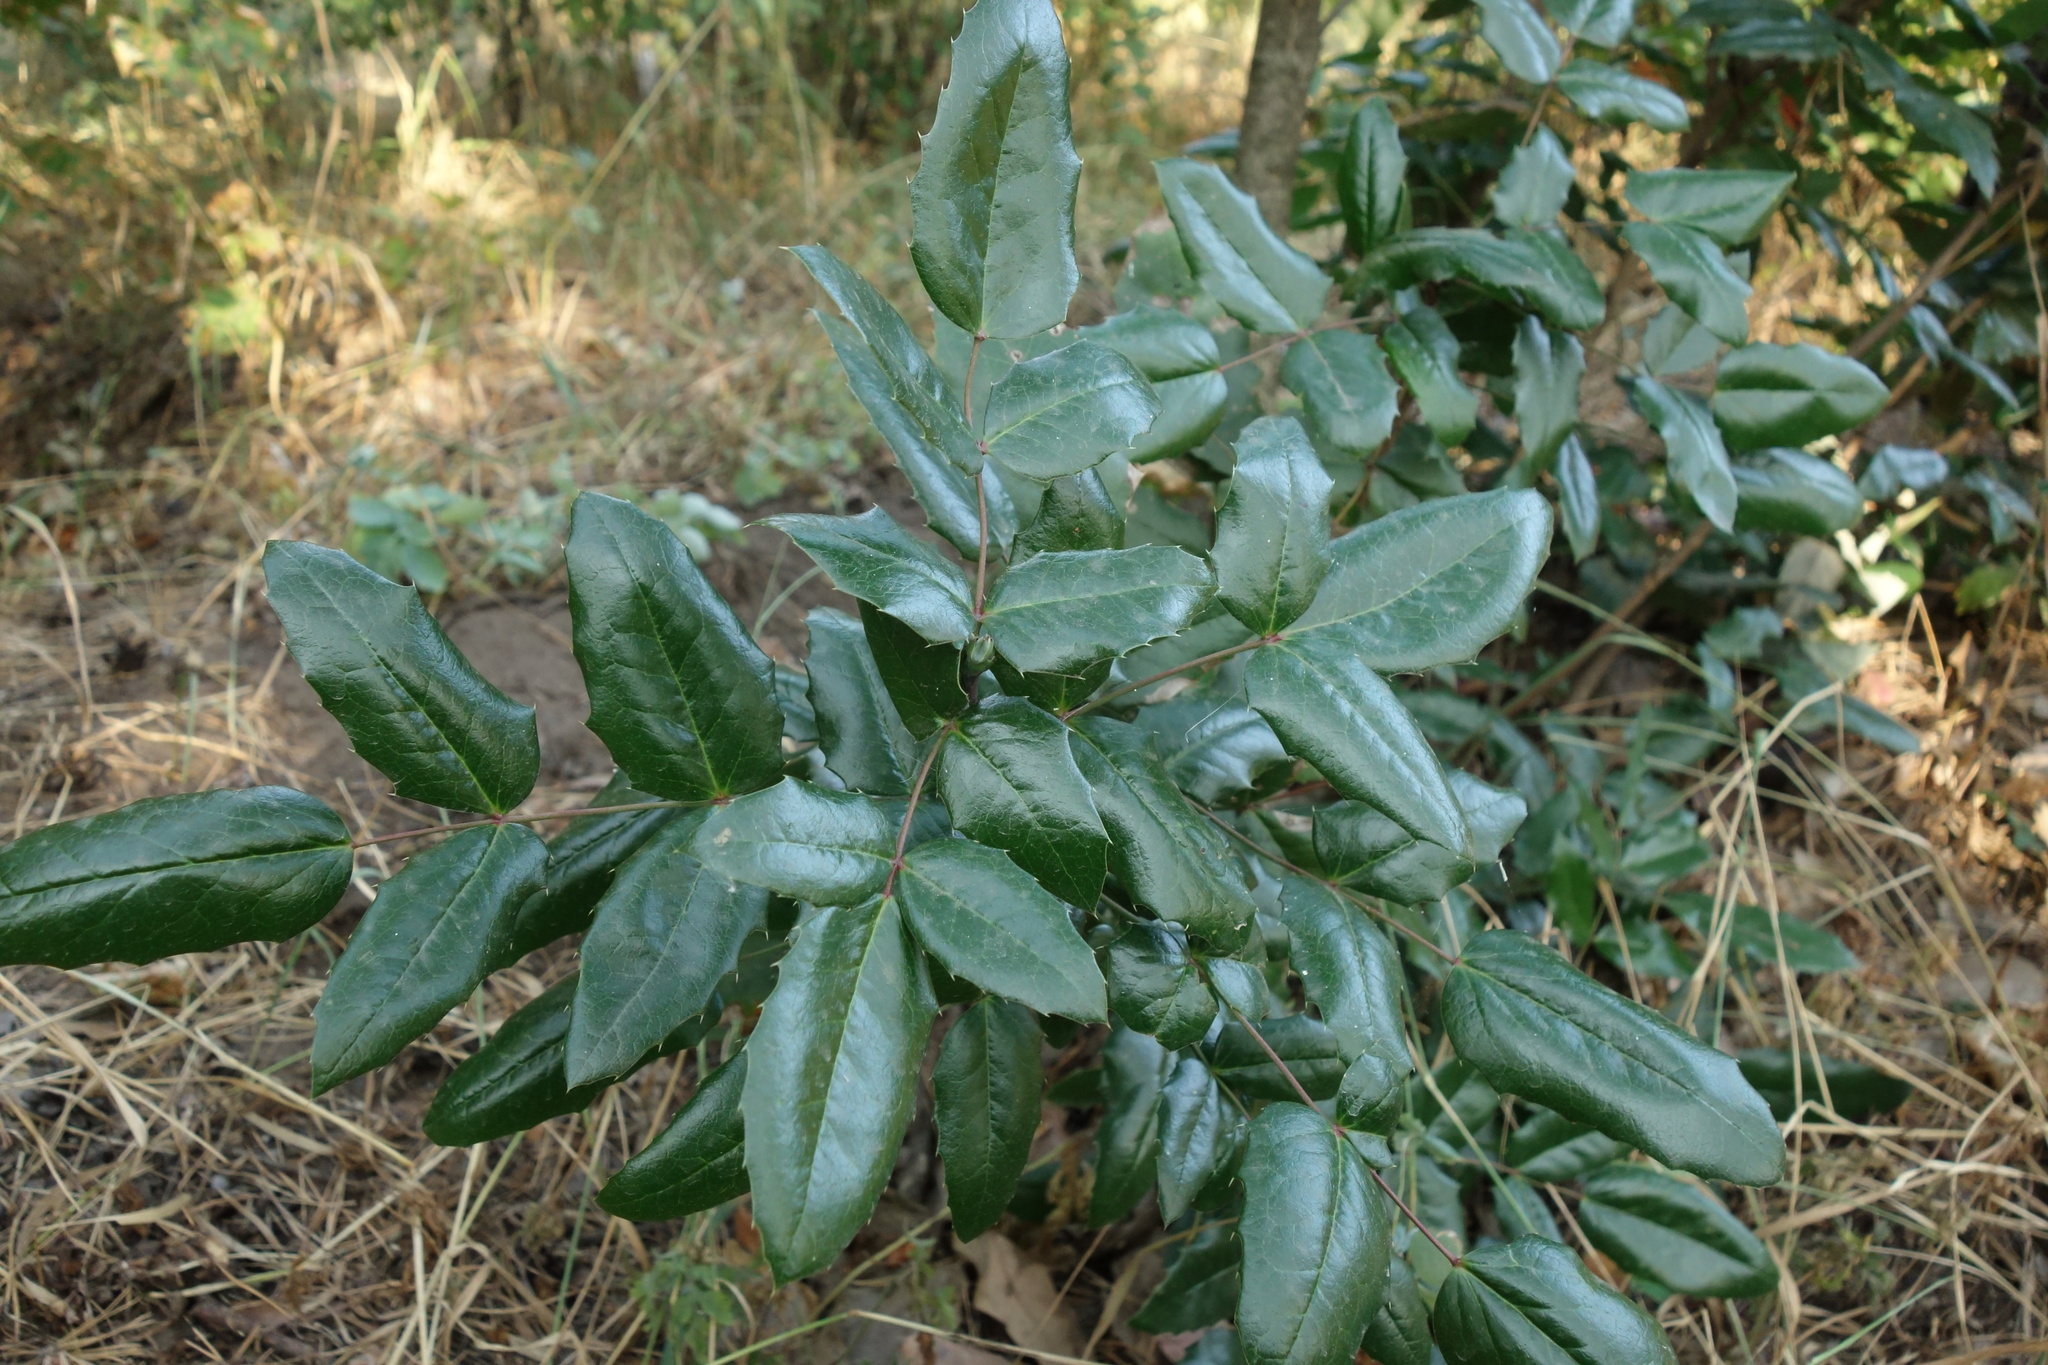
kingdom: Plantae
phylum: Tracheophyta
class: Magnoliopsida
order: Ranunculales
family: Berberidaceae
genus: Mahonia
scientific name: Mahonia aquifolium
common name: Oregon-grape
